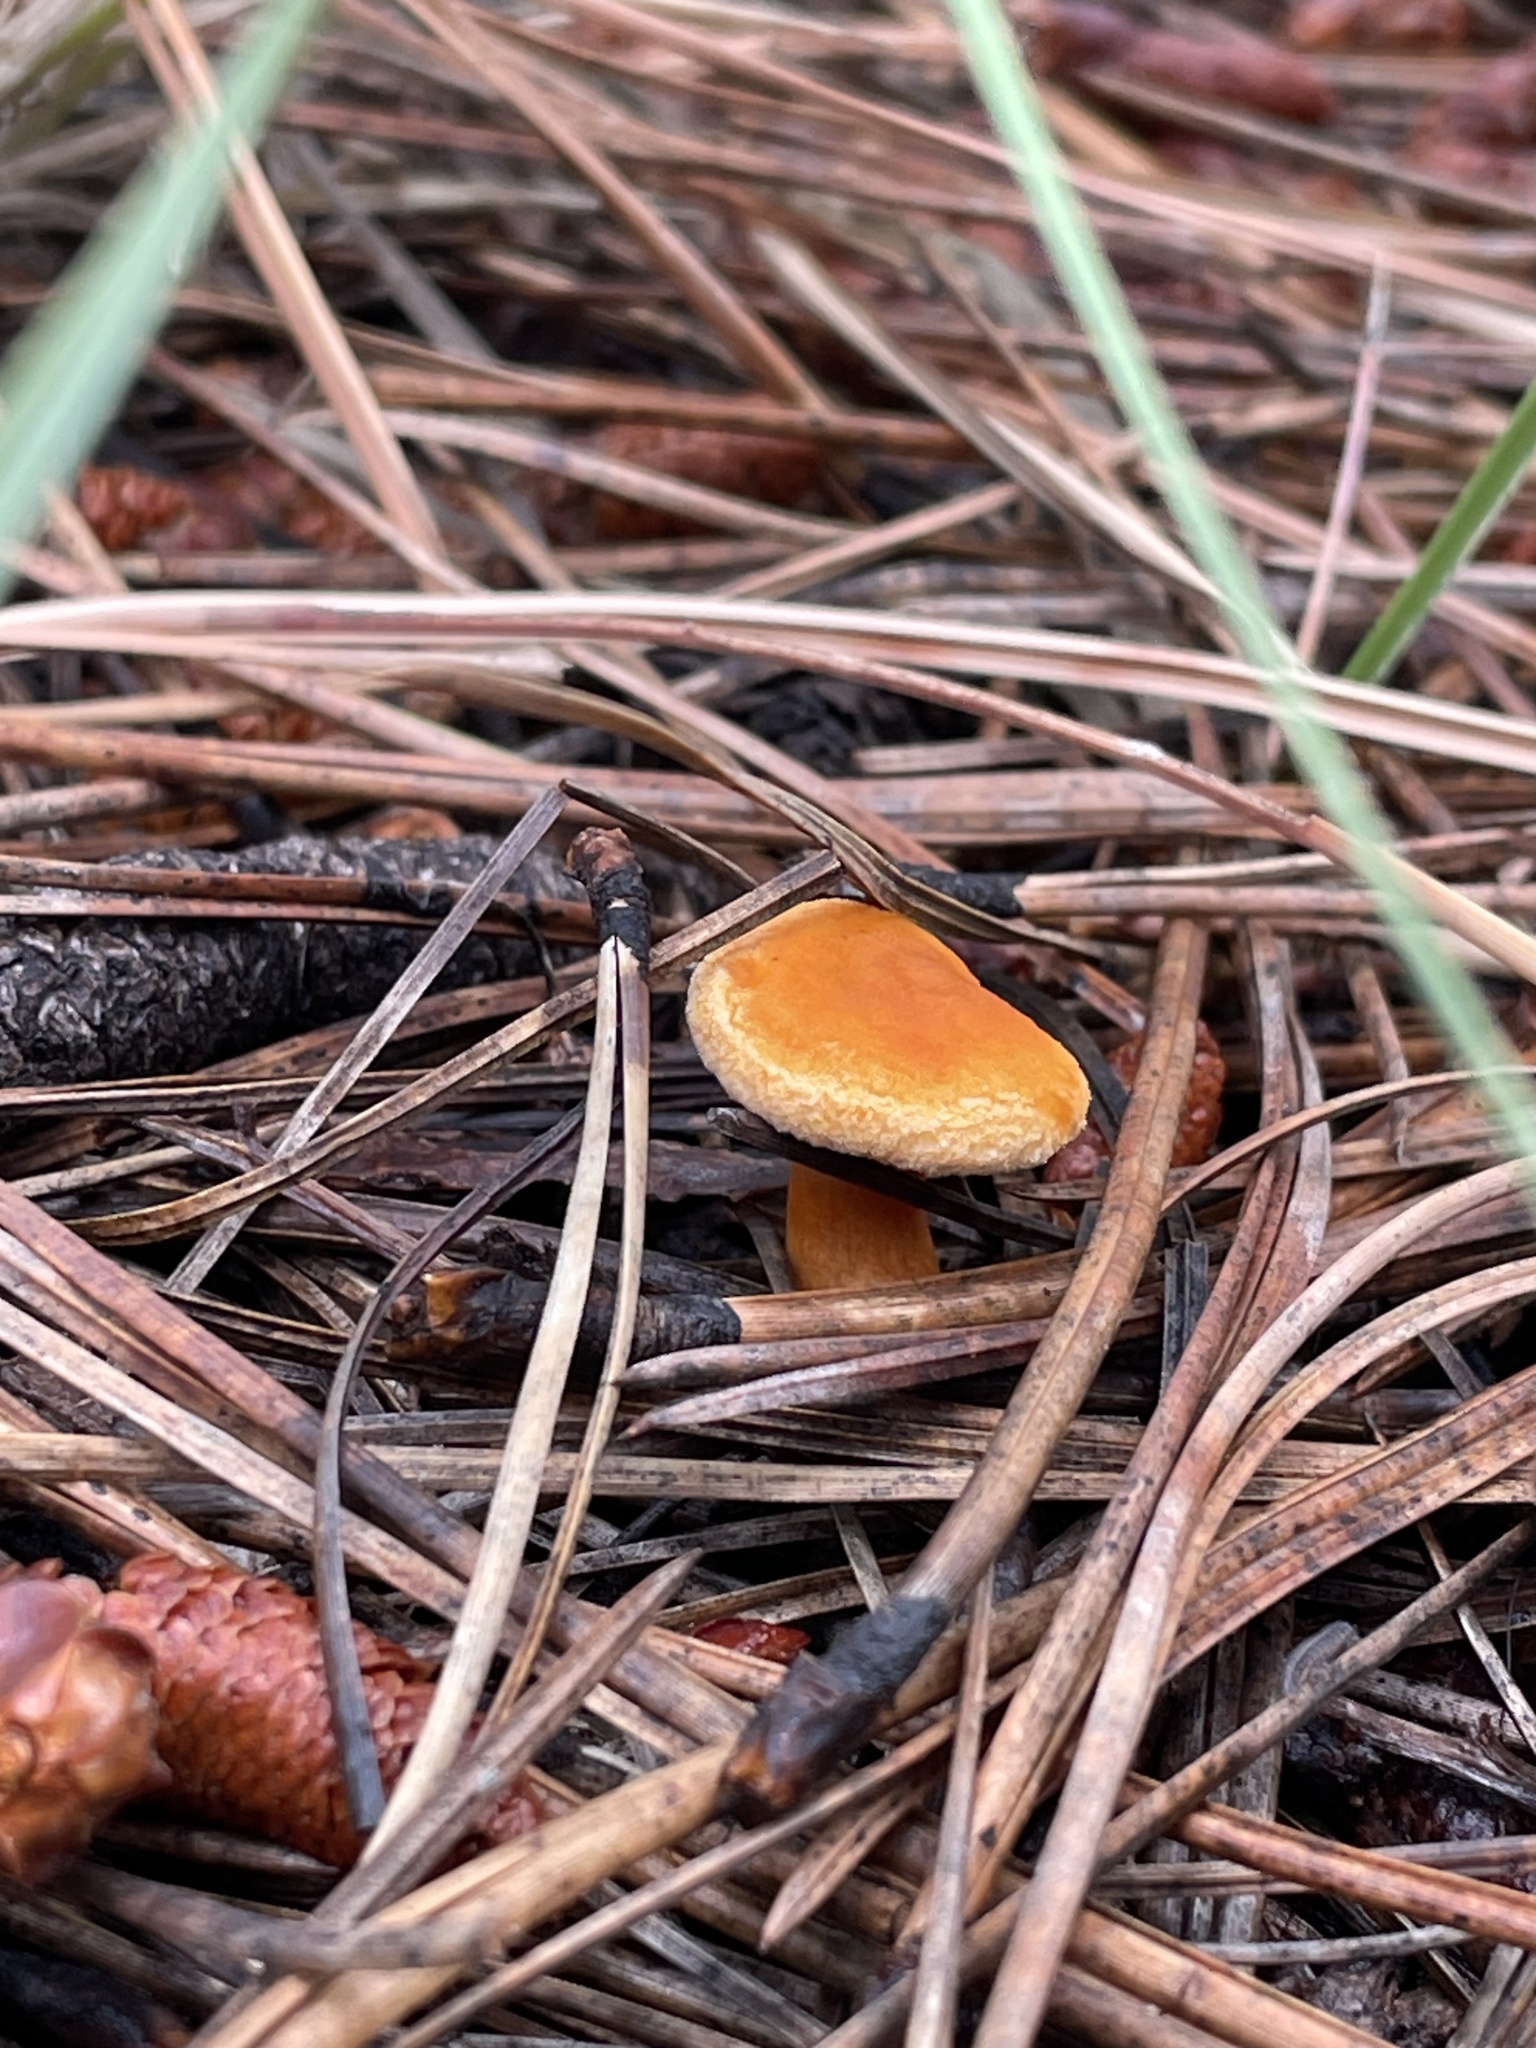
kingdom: Fungi
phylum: Basidiomycota
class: Agaricomycetes
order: Boletales
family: Hygrophoropsidaceae
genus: Hygrophoropsis
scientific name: Hygrophoropsis aurantiaca
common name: False chanterelle
